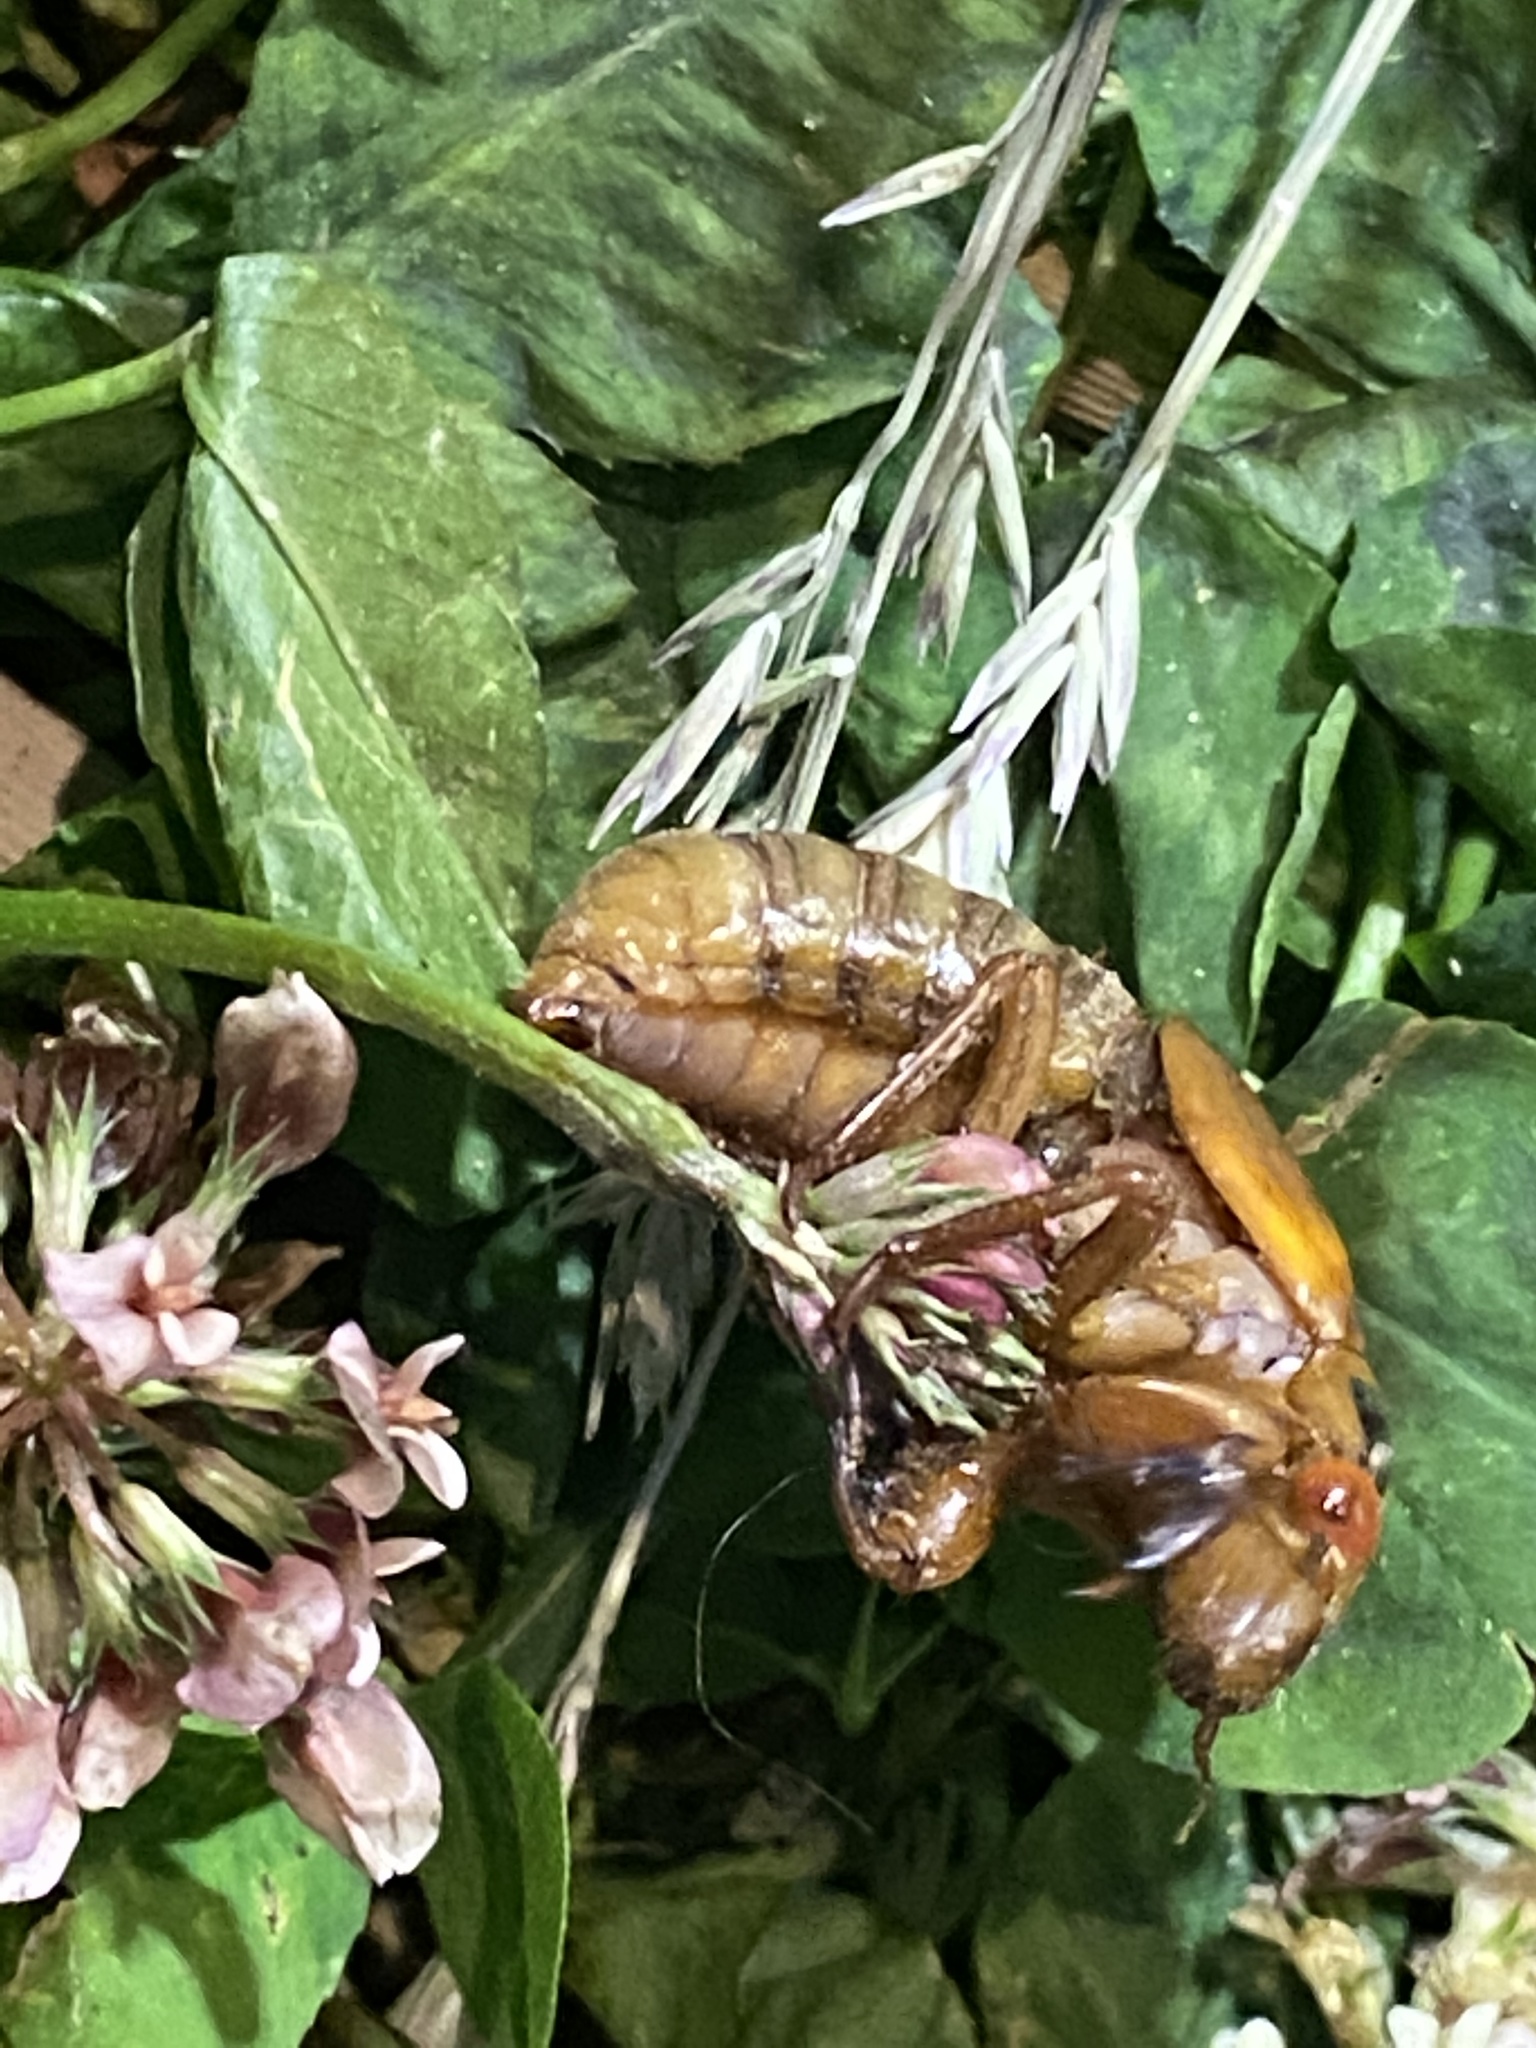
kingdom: Animalia
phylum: Arthropoda
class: Insecta
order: Hemiptera
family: Cicadidae
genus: Magicicada
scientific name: Magicicada
